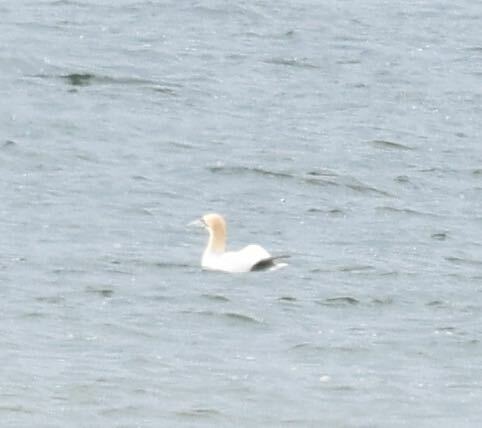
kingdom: Animalia
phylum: Chordata
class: Aves
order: Suliformes
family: Sulidae
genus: Morus
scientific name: Morus bassanus
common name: Northern gannet
